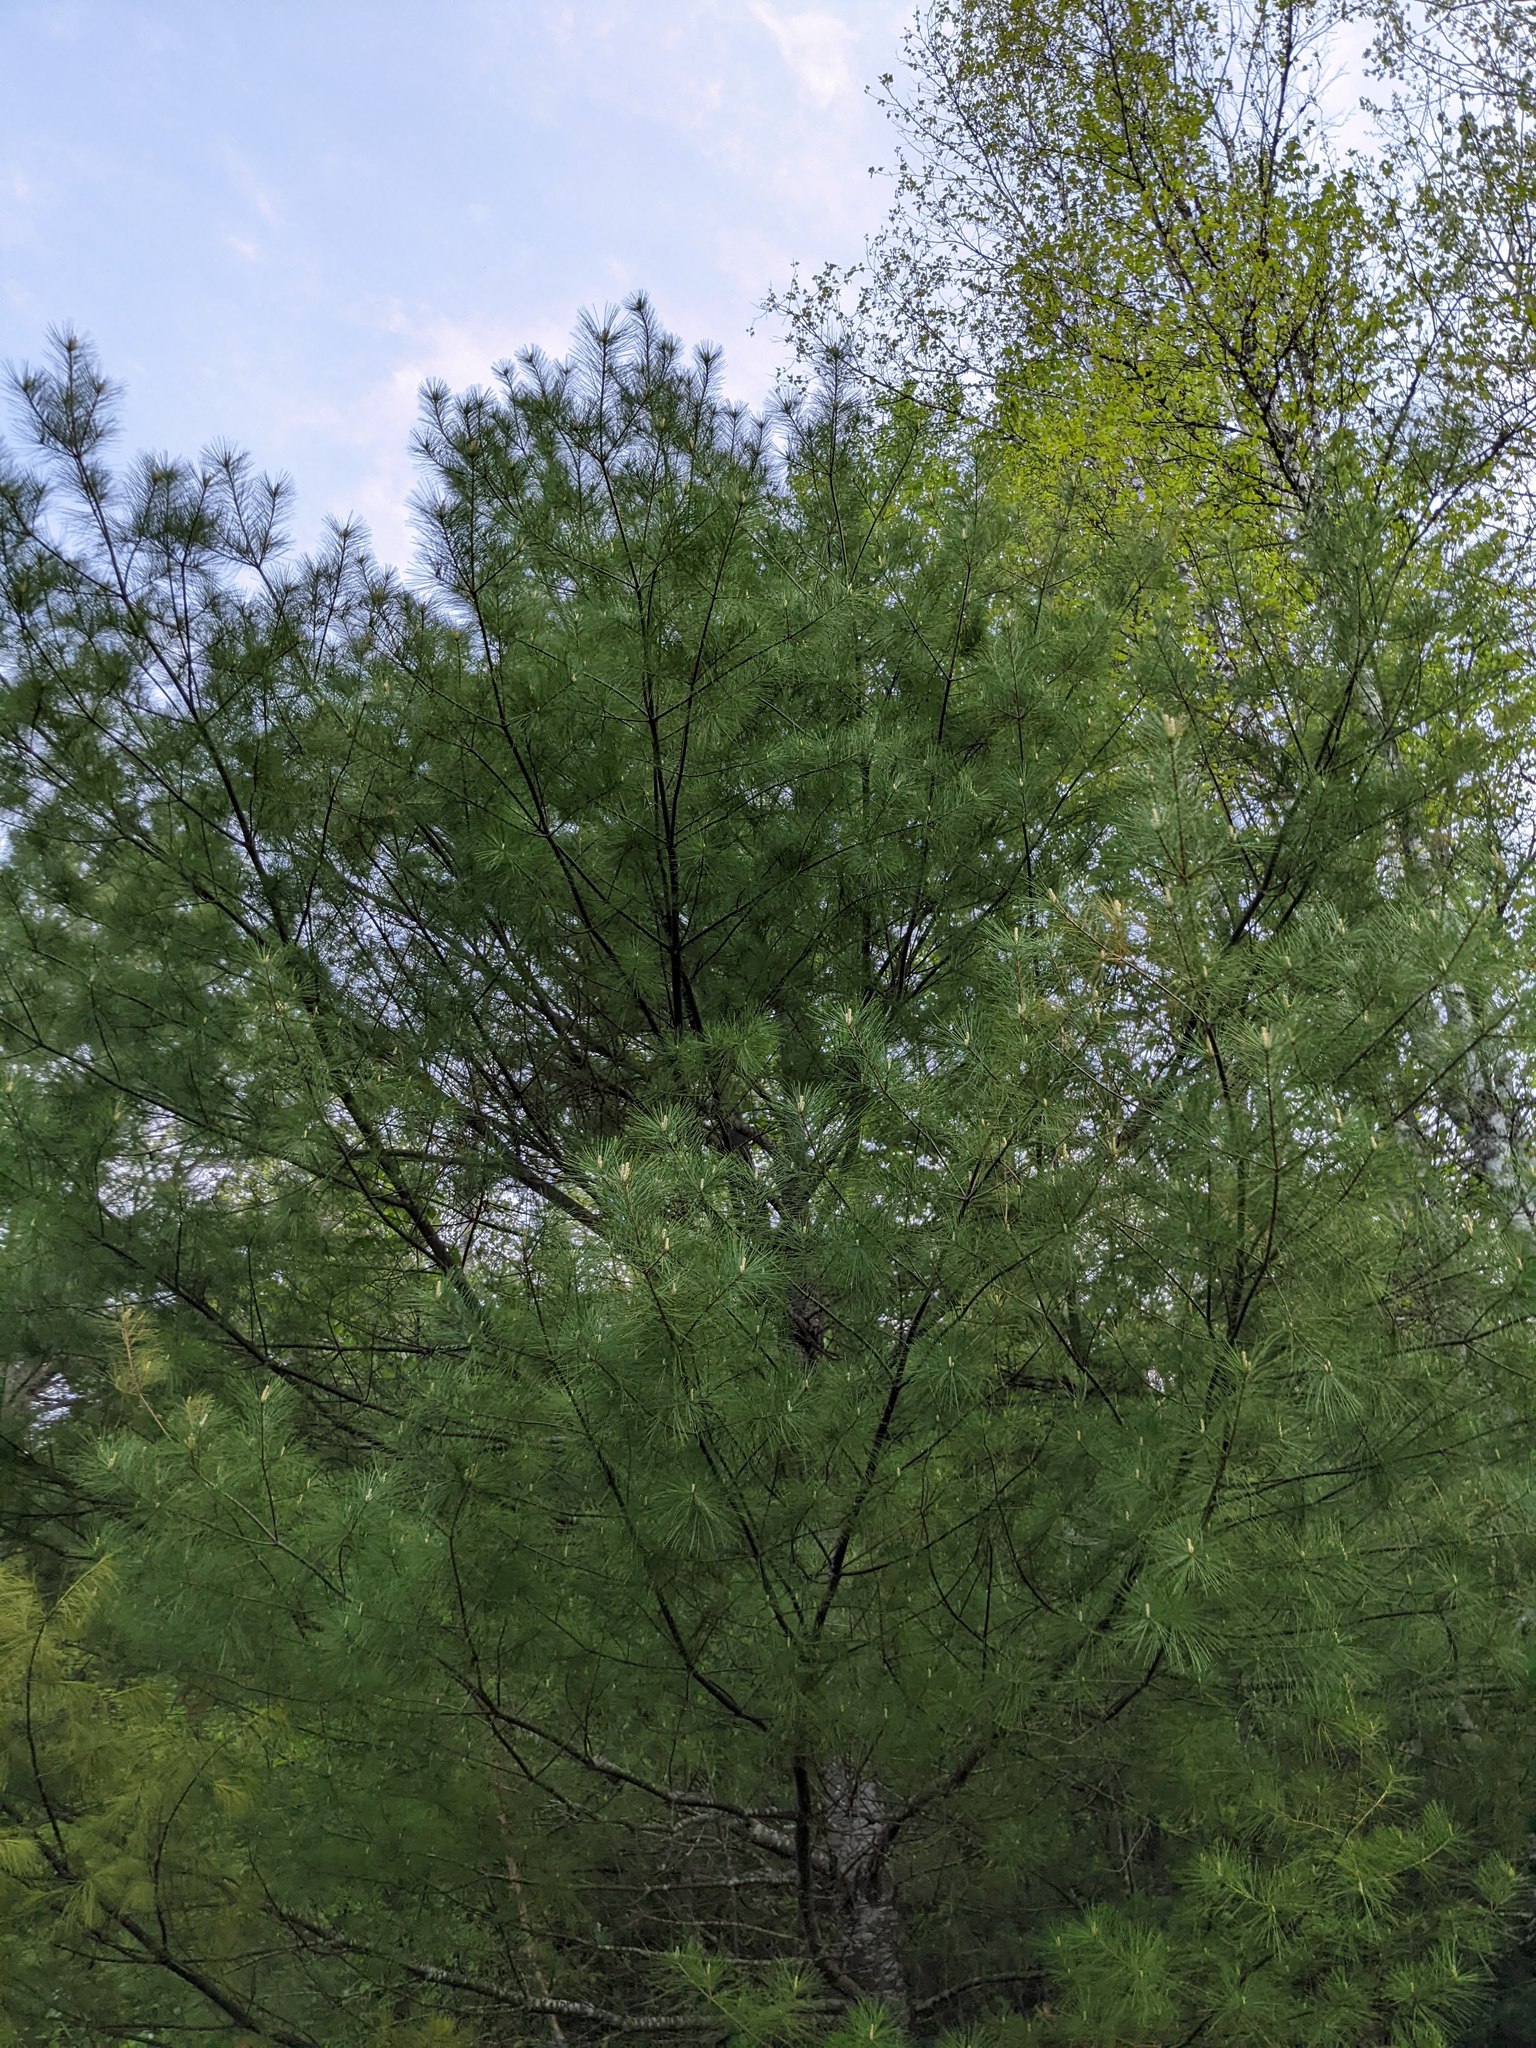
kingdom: Plantae
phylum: Tracheophyta
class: Pinopsida
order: Pinales
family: Pinaceae
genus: Pinus
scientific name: Pinus strobus
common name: Weymouth pine
